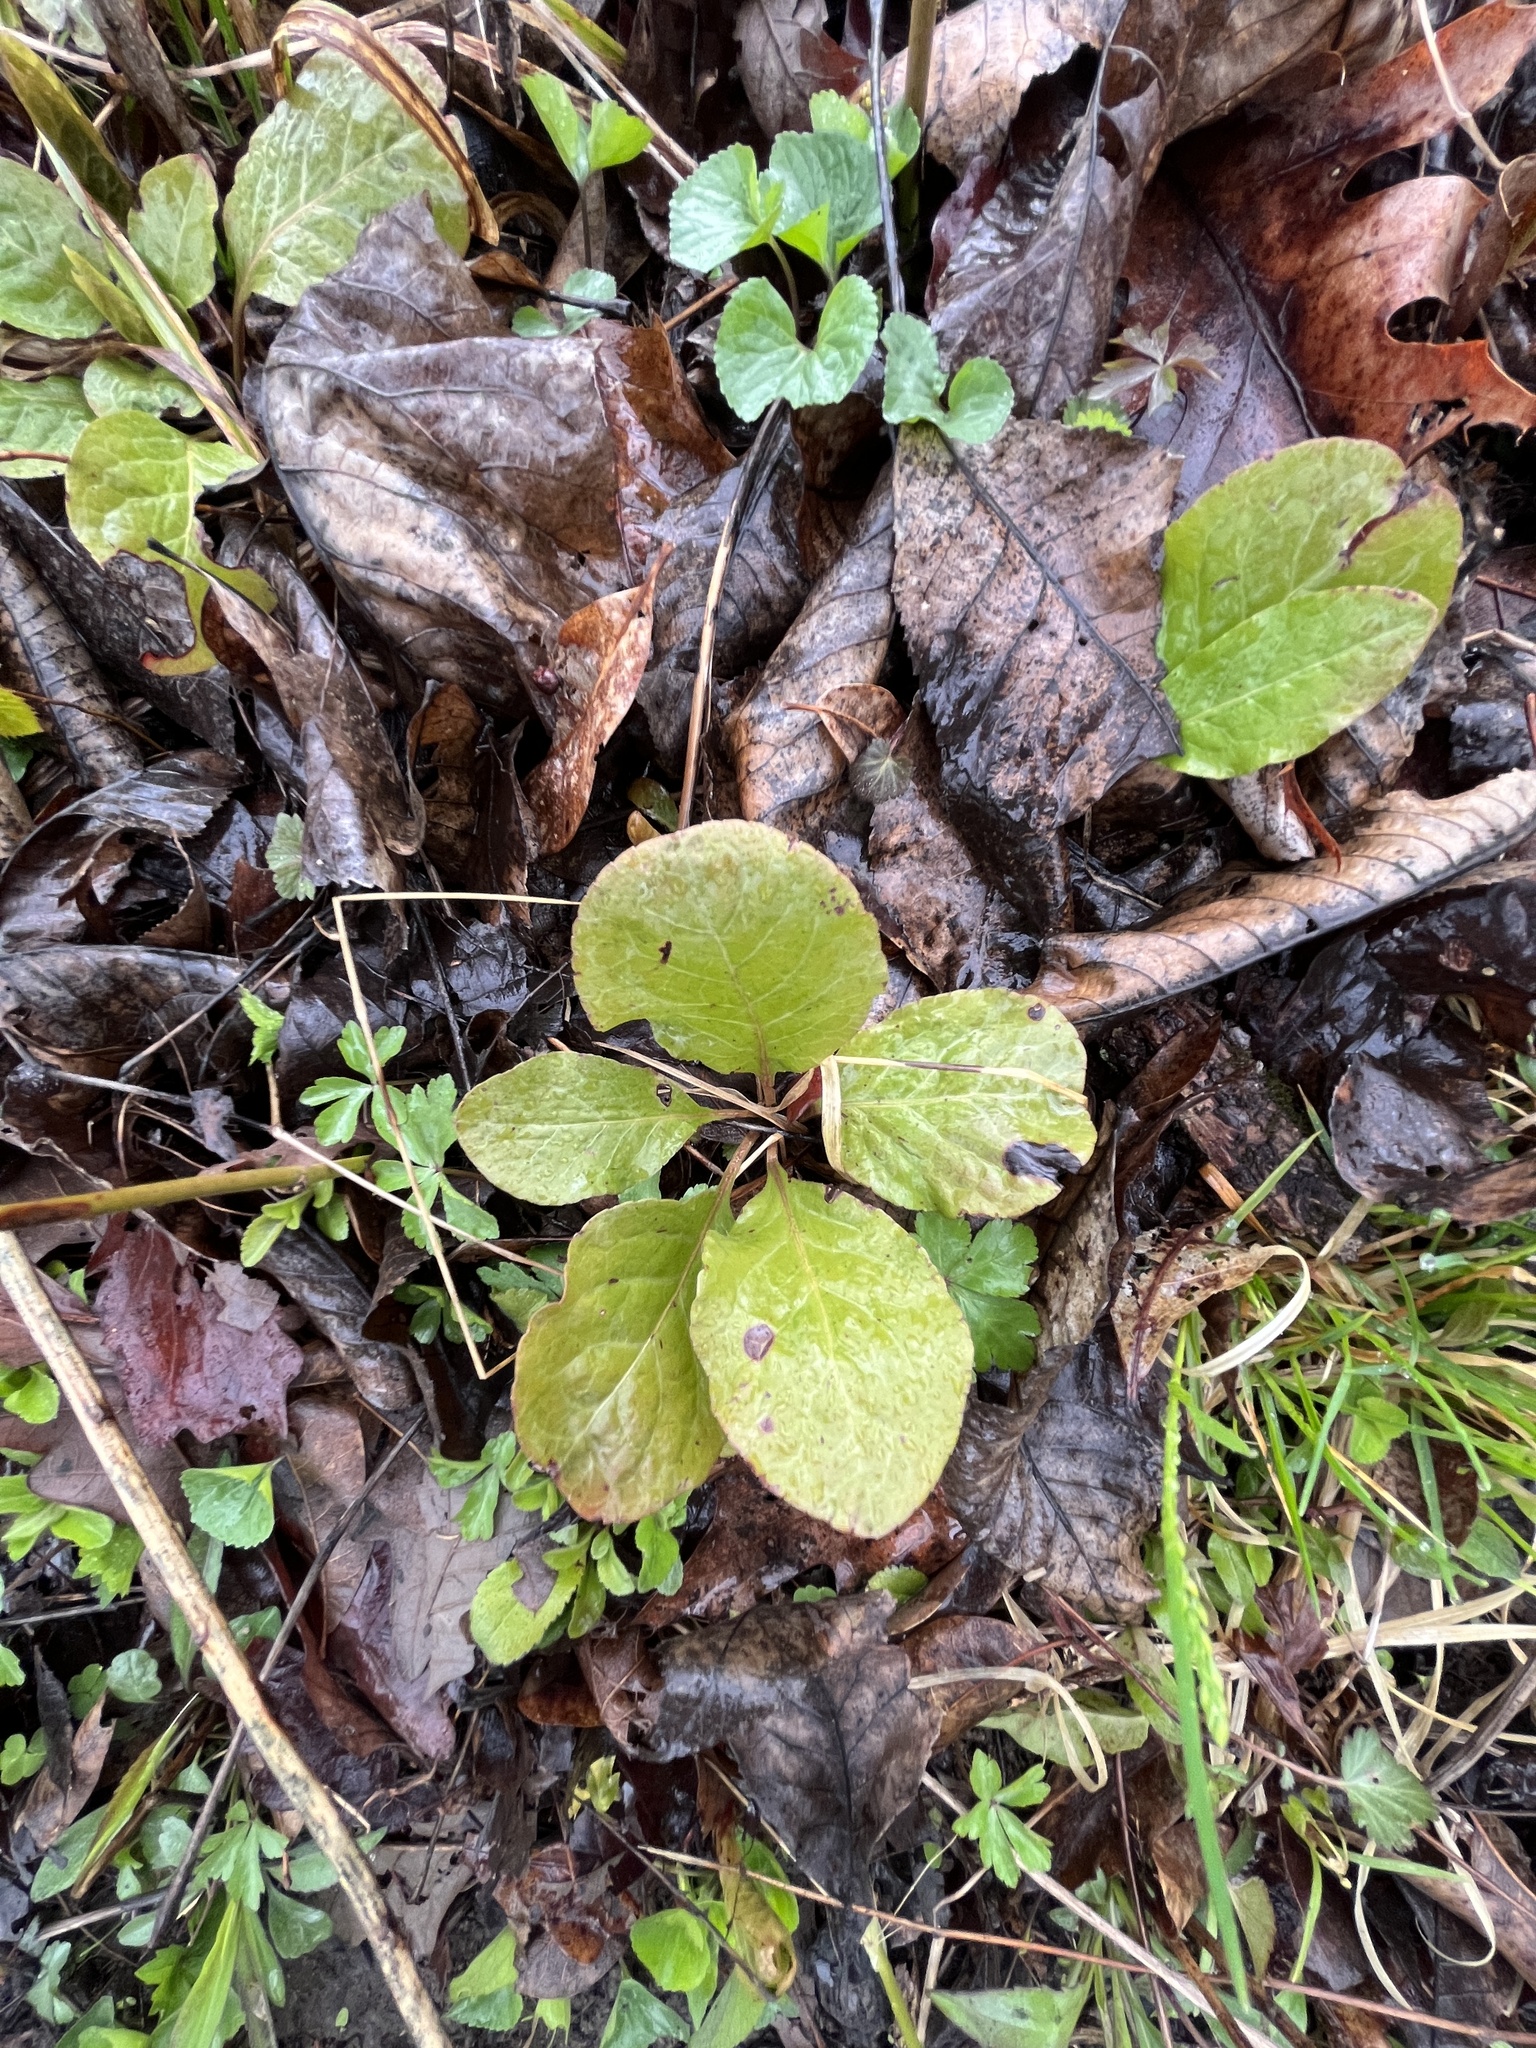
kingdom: Plantae
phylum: Tracheophyta
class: Magnoliopsida
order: Ericales
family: Ericaceae
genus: Pyrola
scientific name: Pyrola elliptica
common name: Shinleaf
